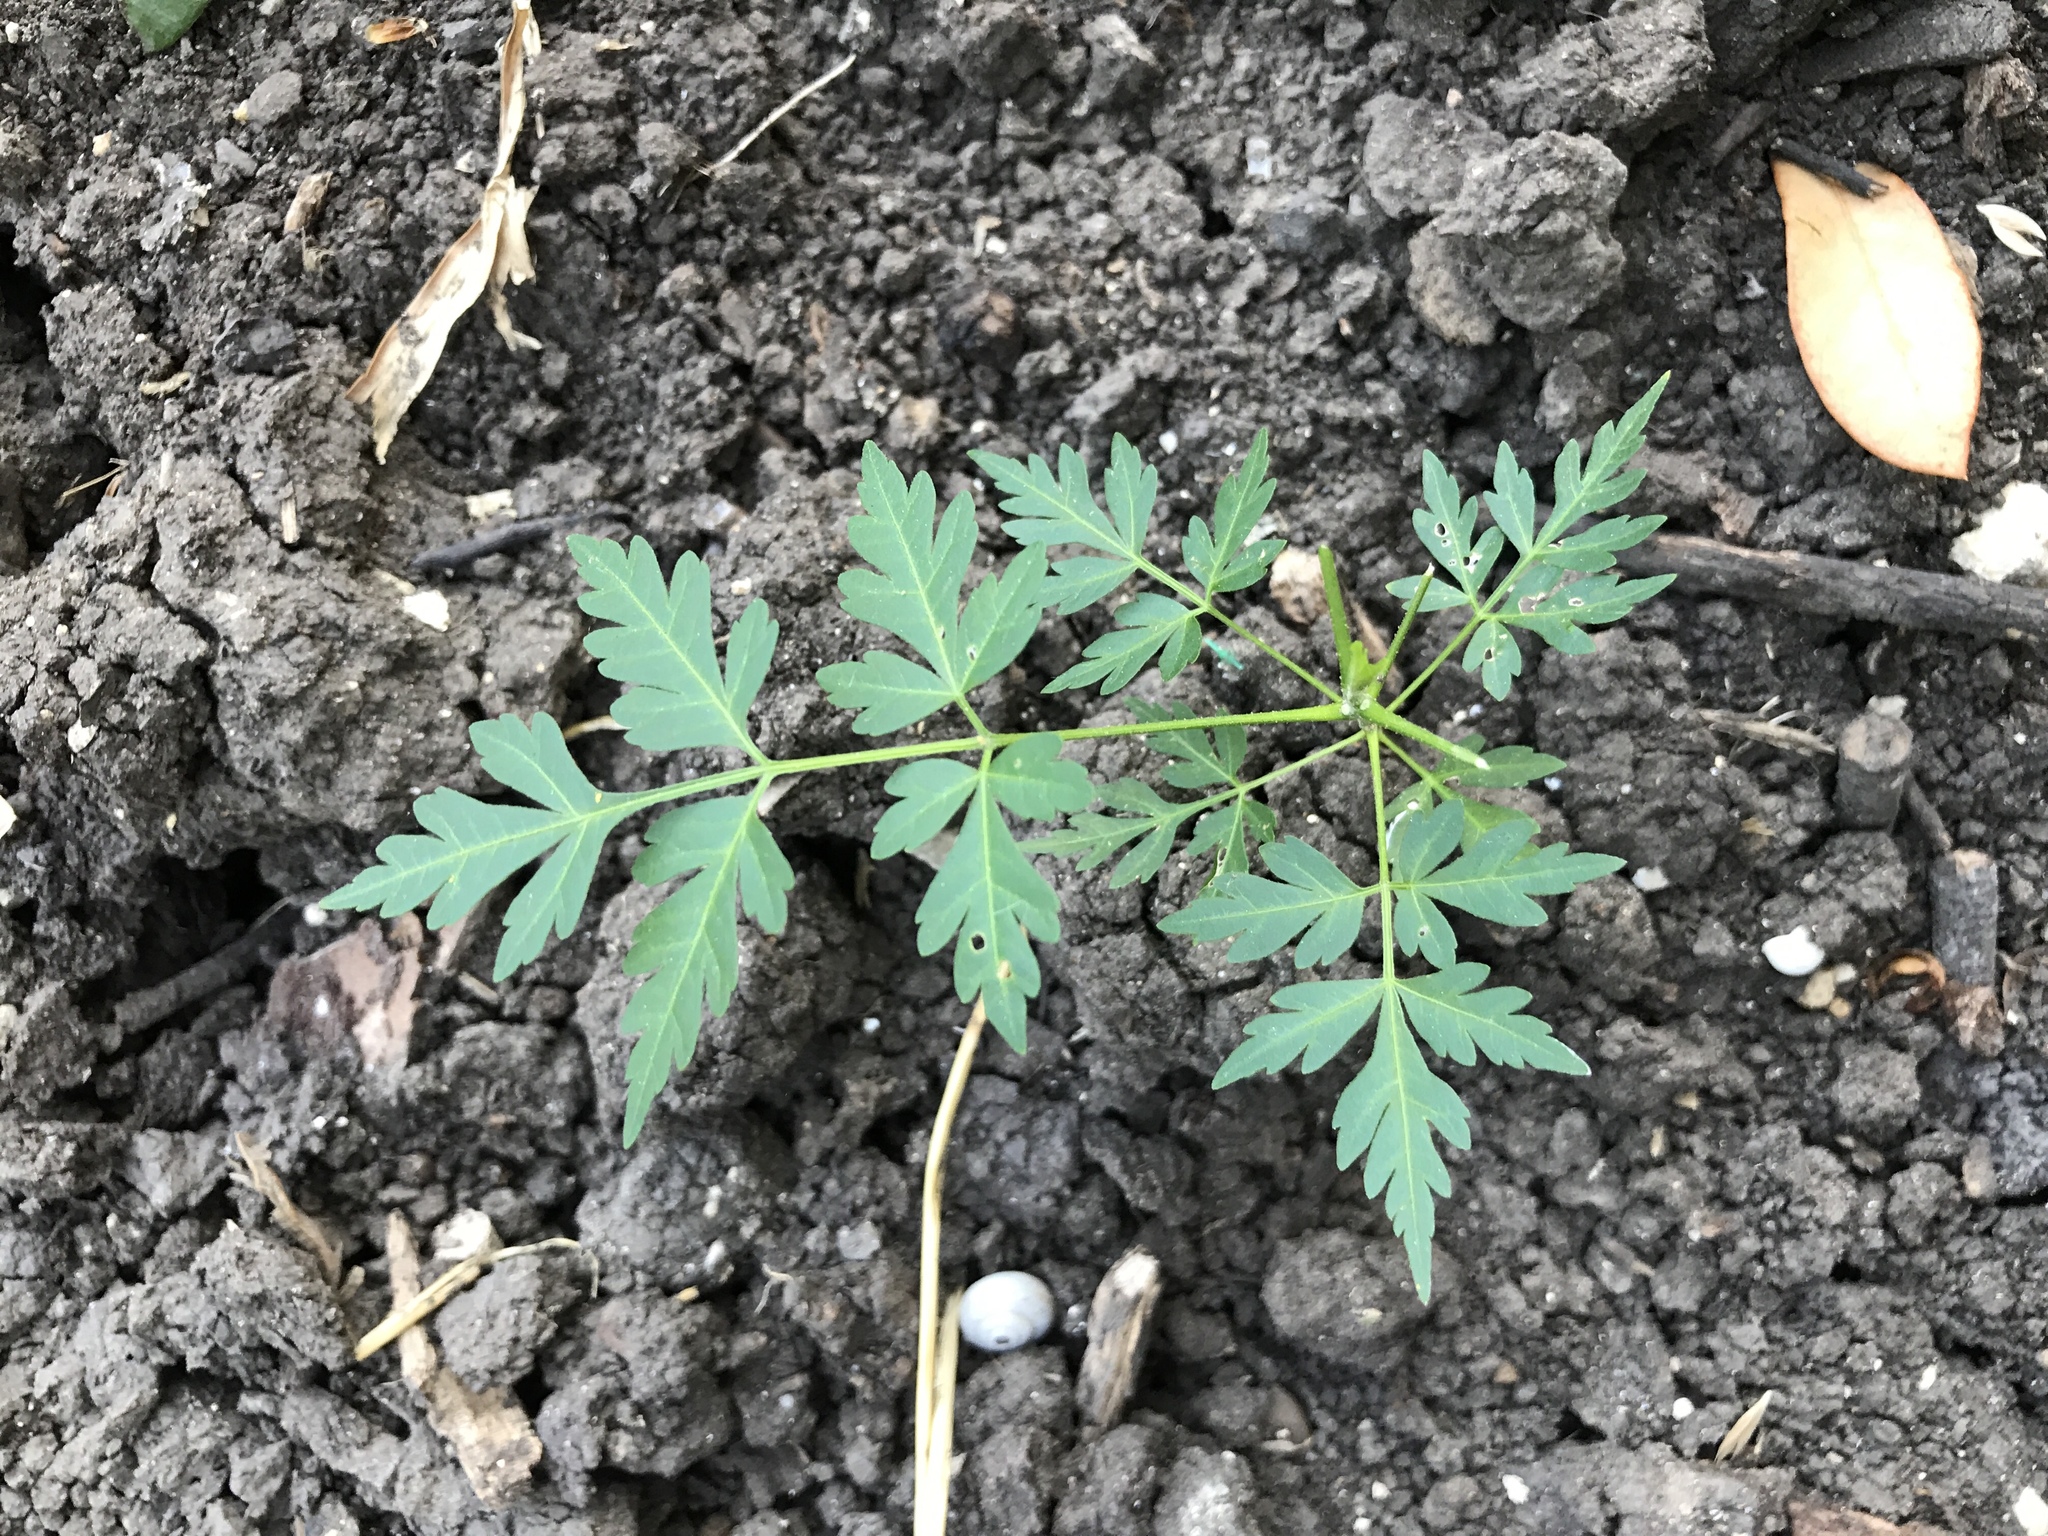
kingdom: Plantae
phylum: Tracheophyta
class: Magnoliopsida
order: Sapindales
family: Meliaceae
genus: Melia
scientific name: Melia azedarach
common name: Chinaberrytree
